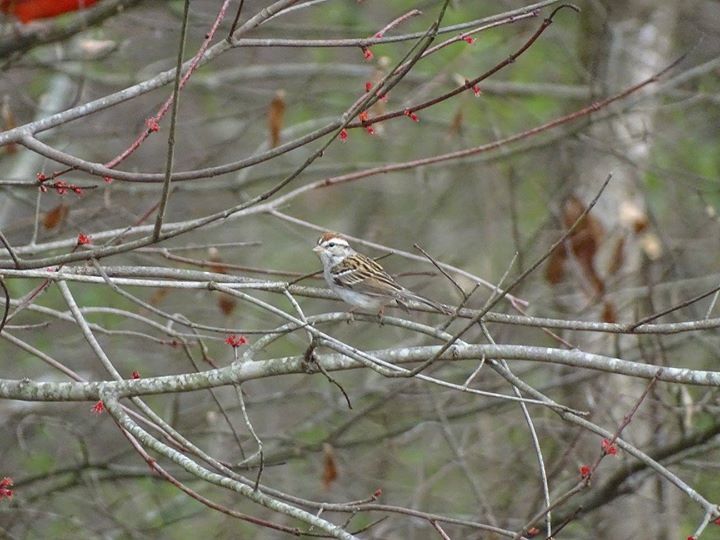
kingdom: Animalia
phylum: Chordata
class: Aves
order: Passeriformes
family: Passerellidae
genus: Spizella
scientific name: Spizella passerina
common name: Chipping sparrow
